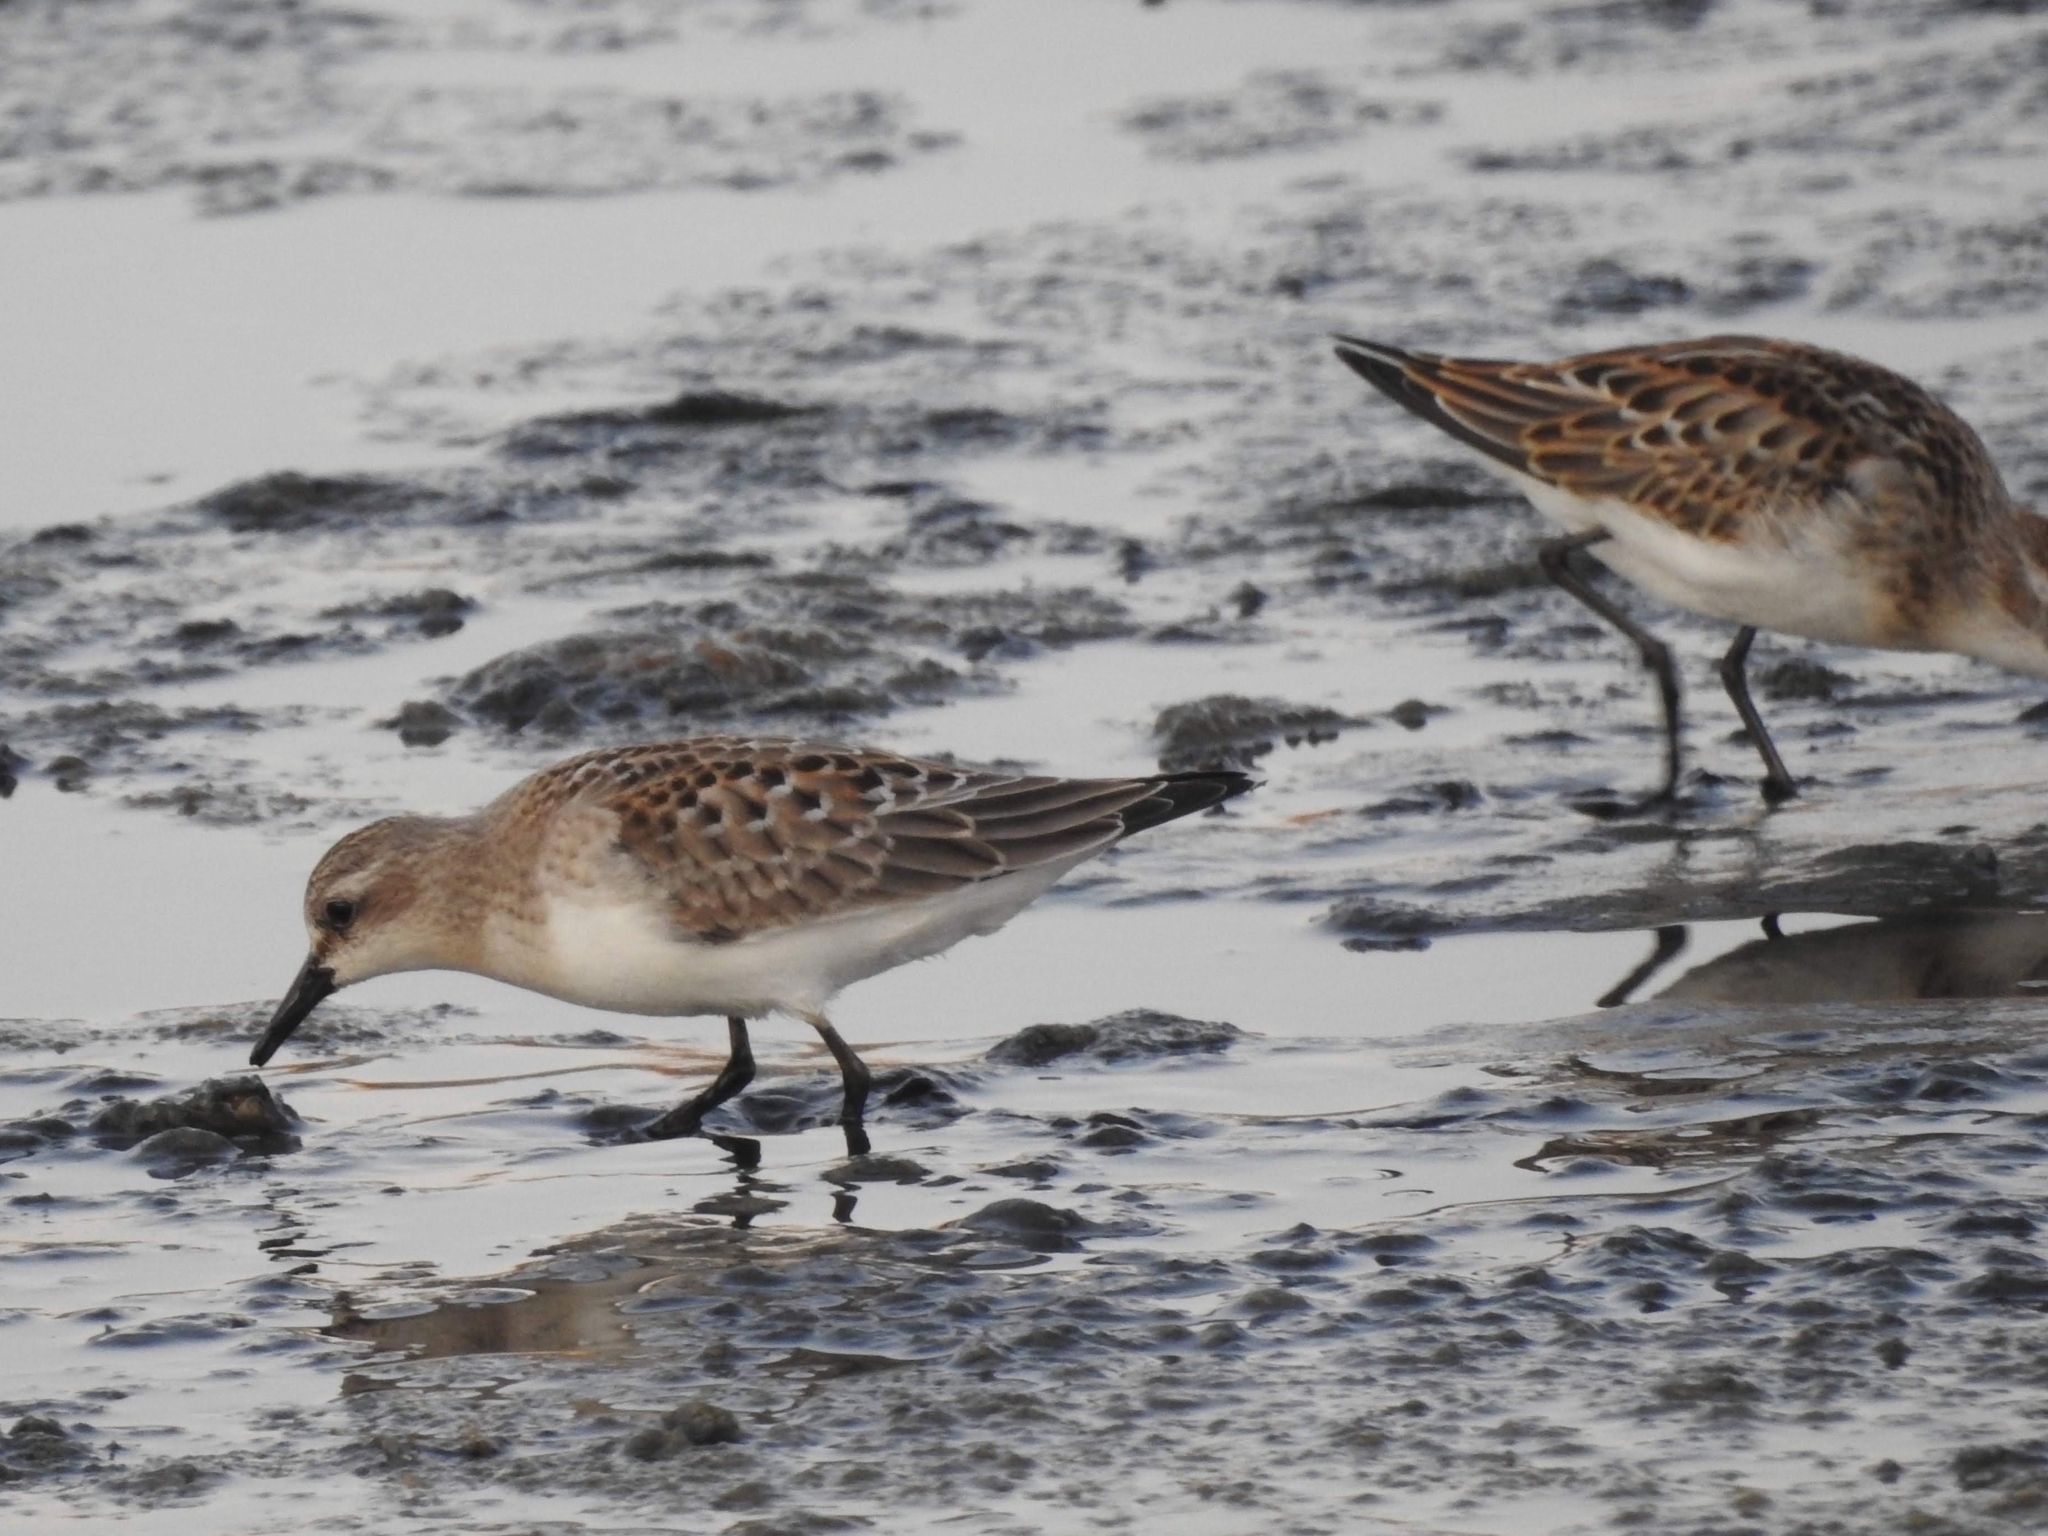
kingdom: Animalia
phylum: Chordata
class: Aves
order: Charadriiformes
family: Scolopacidae
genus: Calidris
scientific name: Calidris ruficollis
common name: Red-necked stint
